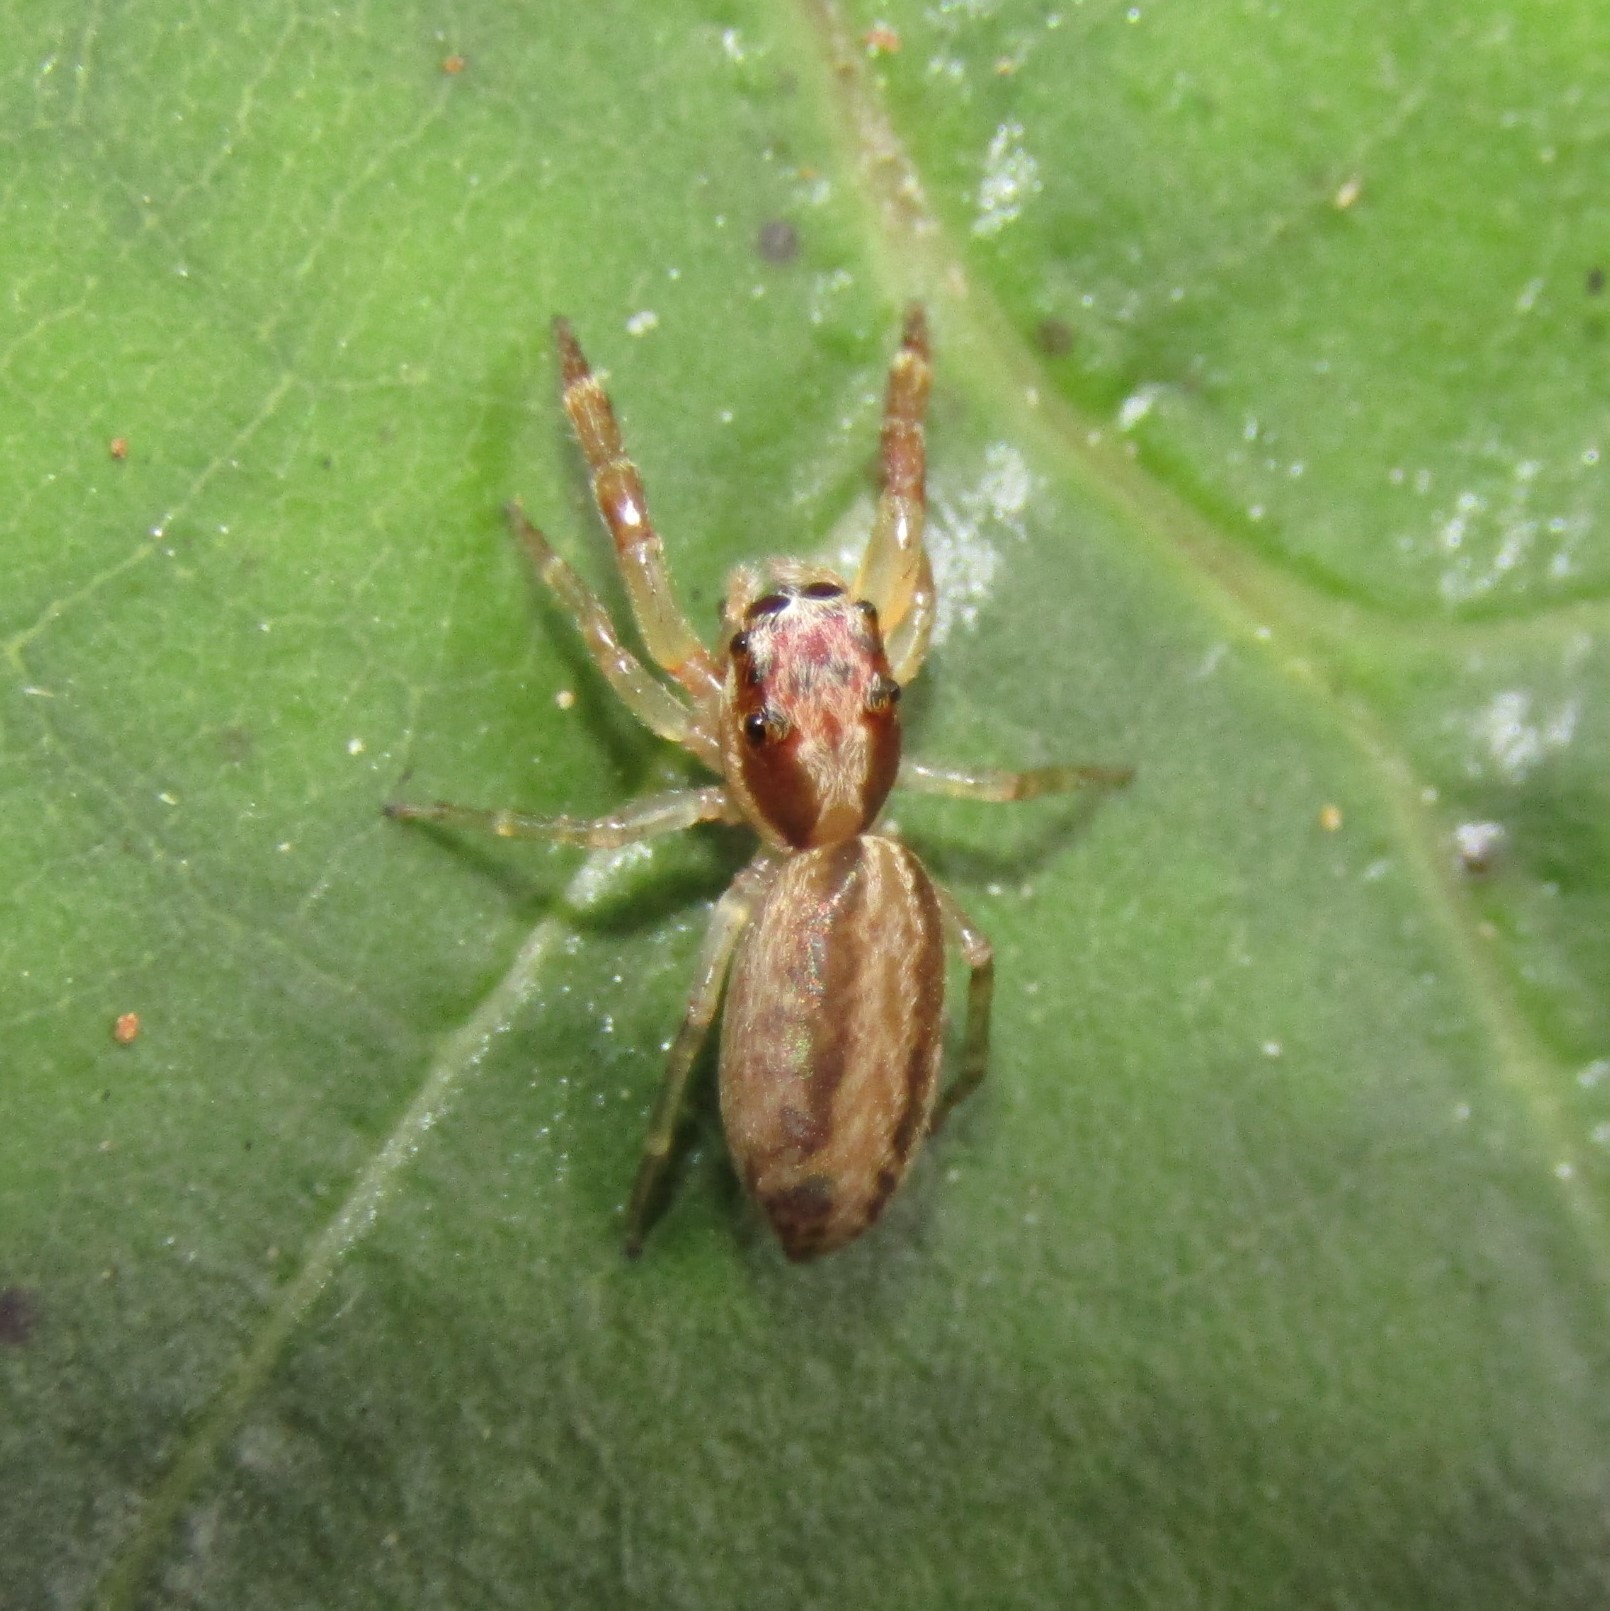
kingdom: Animalia
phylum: Arthropoda
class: Arachnida
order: Araneae
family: Salticidae
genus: Trite
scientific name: Trite mustilina
